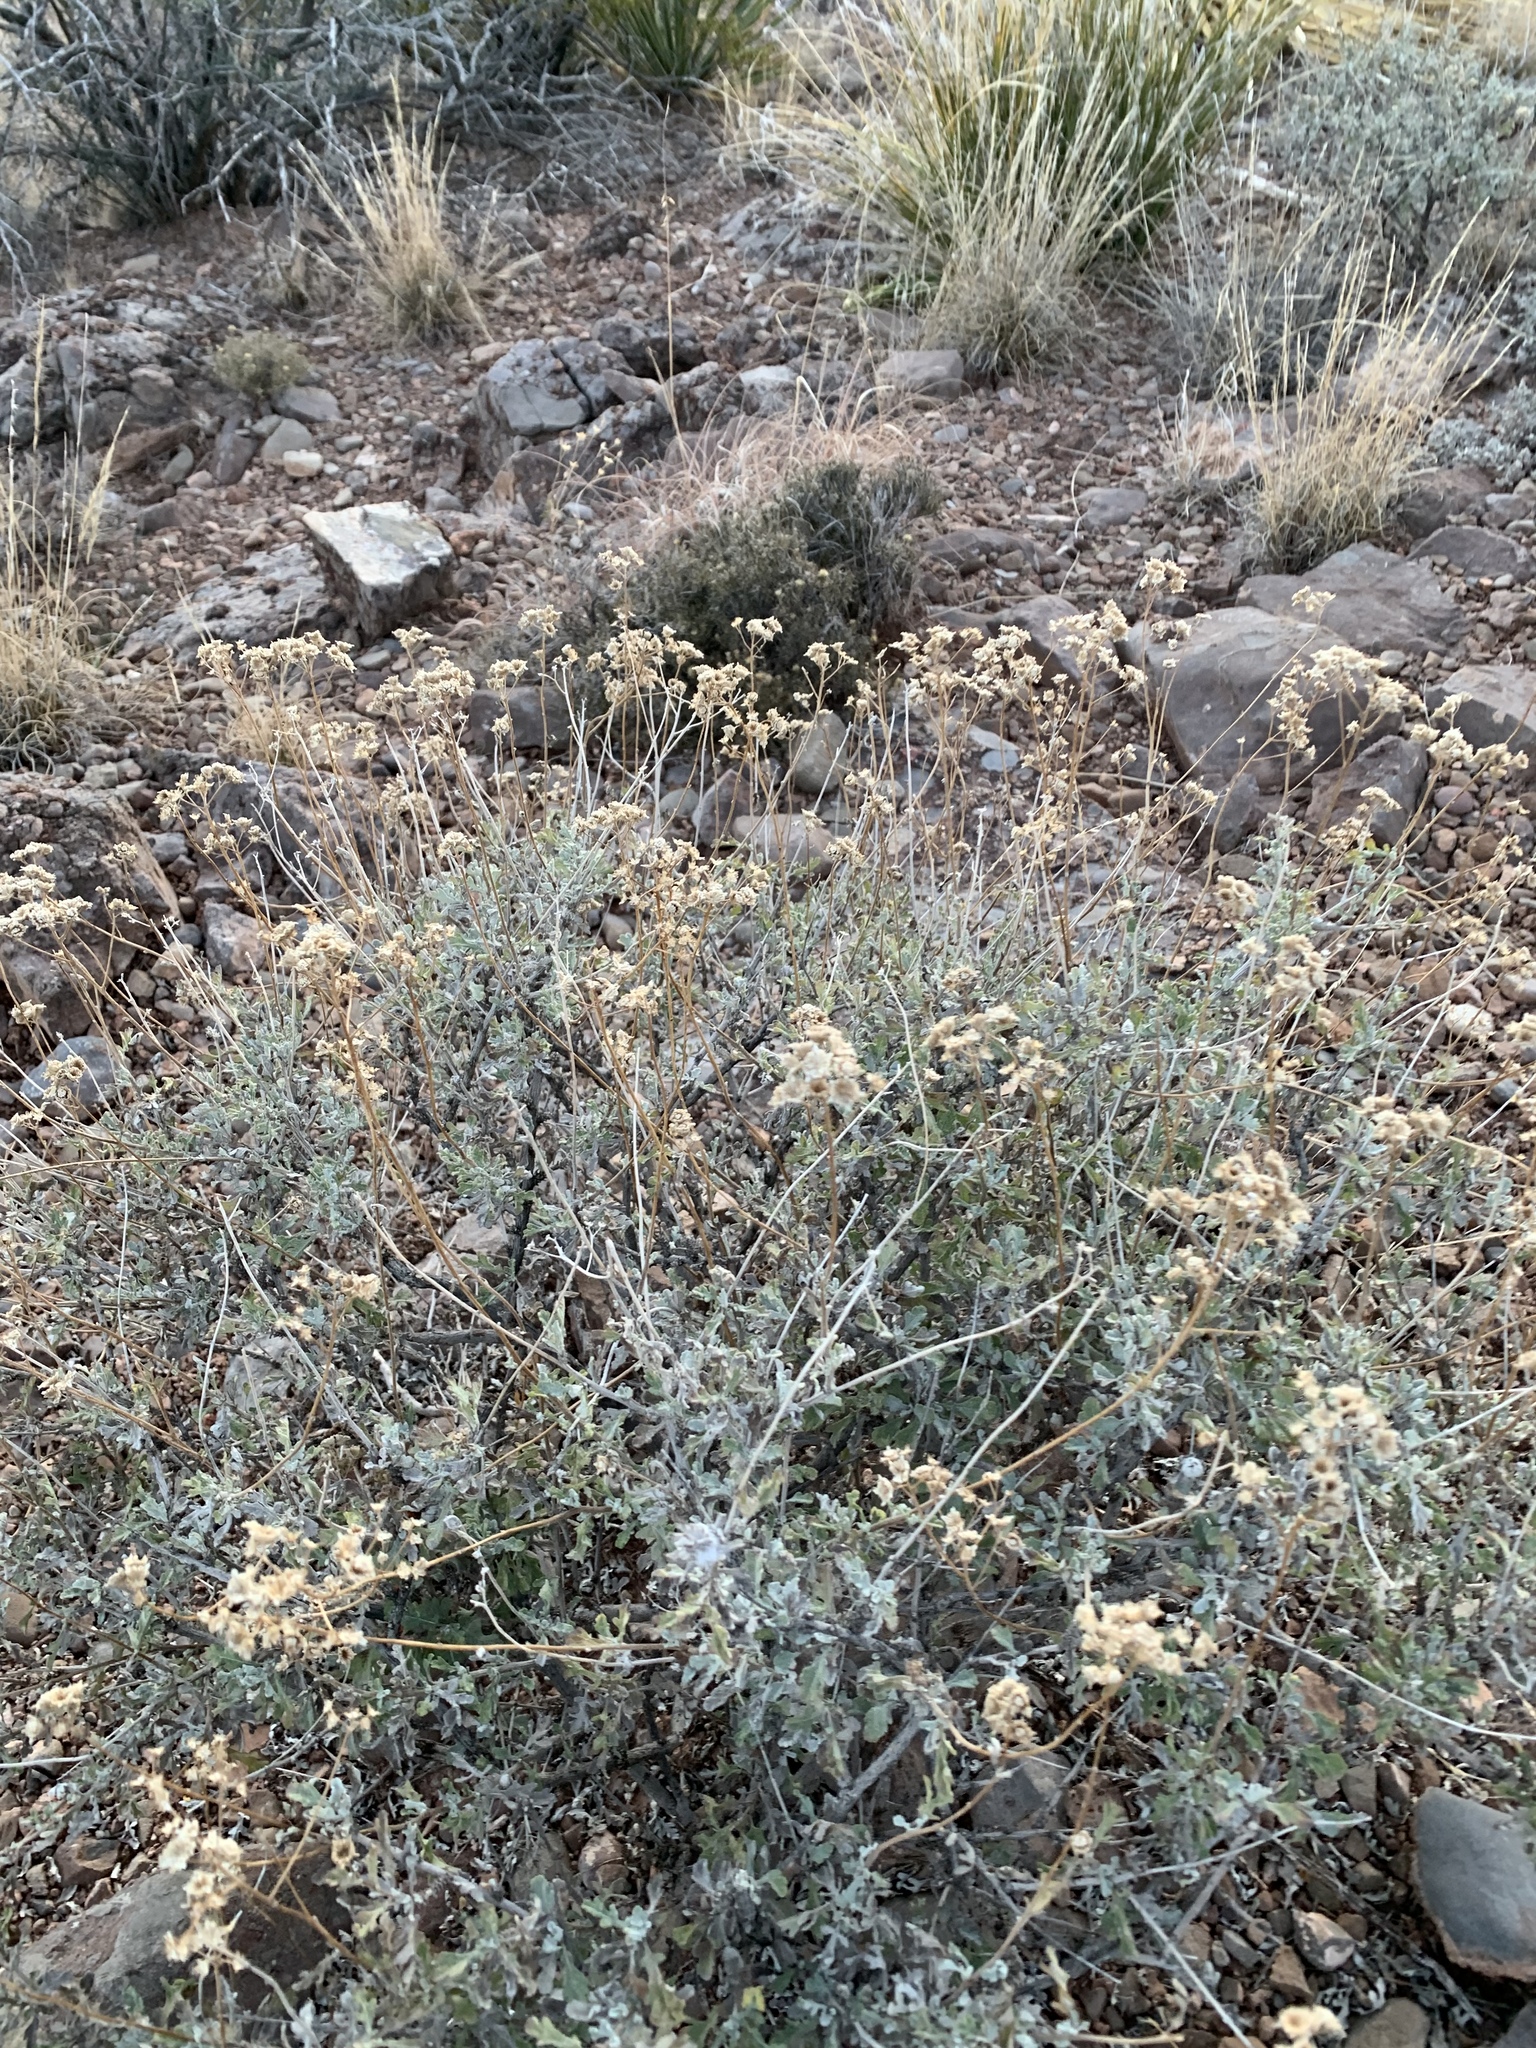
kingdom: Plantae
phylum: Tracheophyta
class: Magnoliopsida
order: Asterales
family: Asteraceae
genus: Parthenium
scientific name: Parthenium incanum
